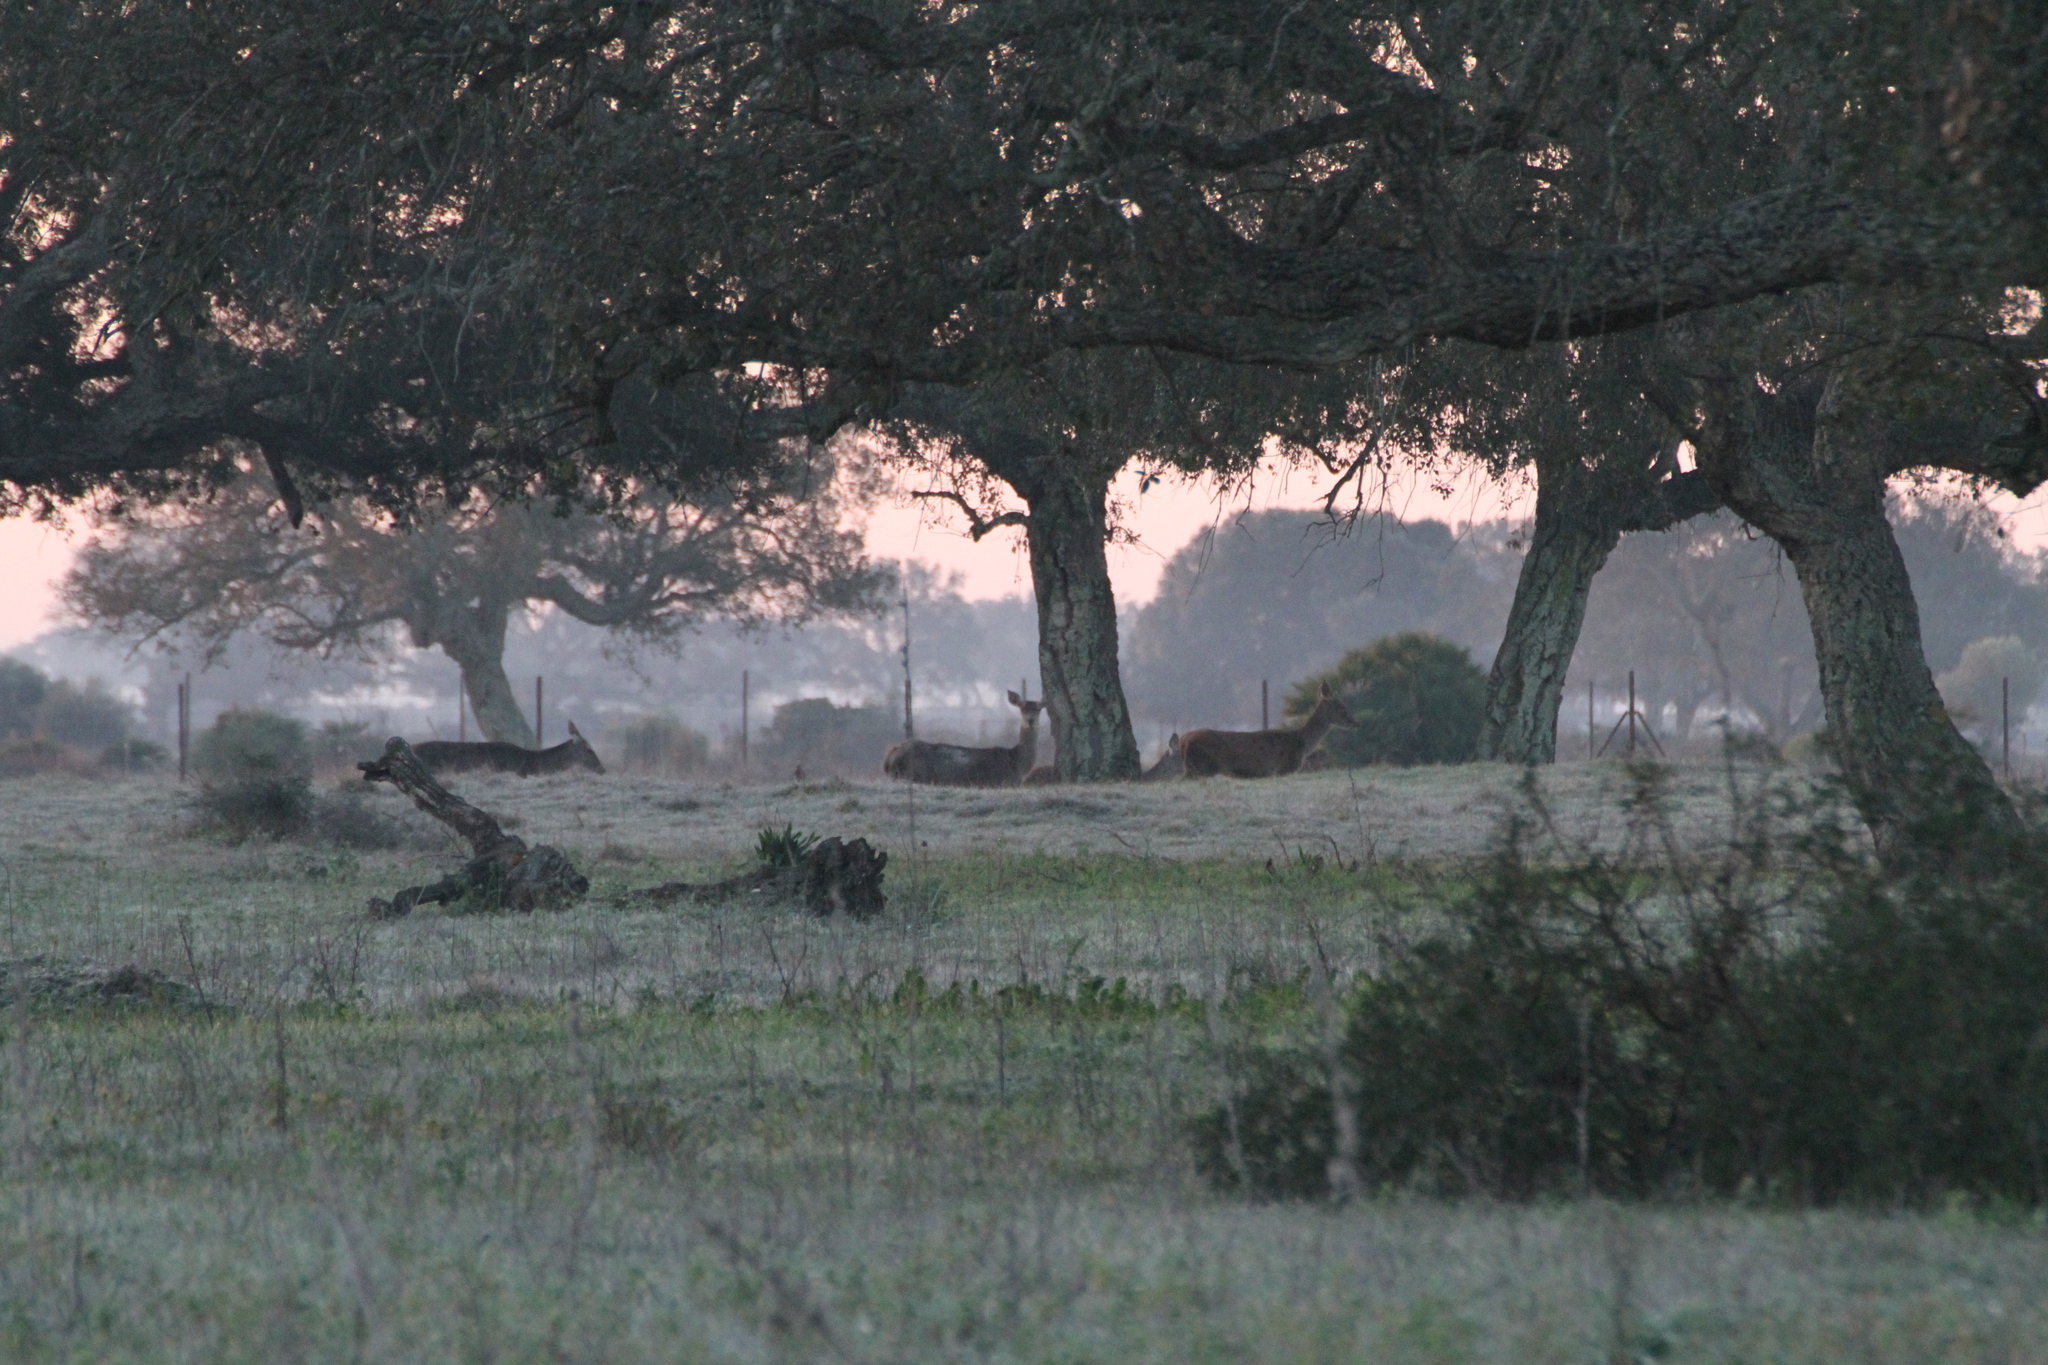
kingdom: Animalia
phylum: Chordata
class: Mammalia
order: Artiodactyla
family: Cervidae
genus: Cervus
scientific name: Cervus elaphus
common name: Red deer
